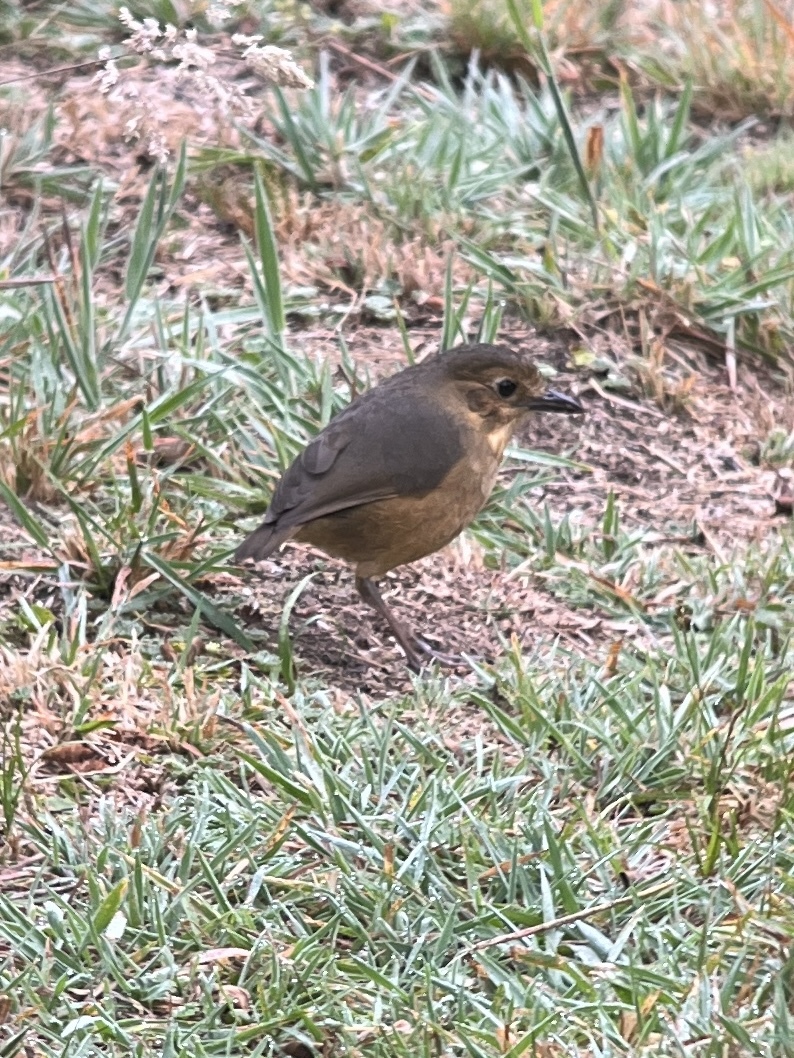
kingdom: Animalia
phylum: Chordata
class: Aves
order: Passeriformes
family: Grallariidae
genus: Grallaria
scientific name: Grallaria quitensis
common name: Tawny antpitta
